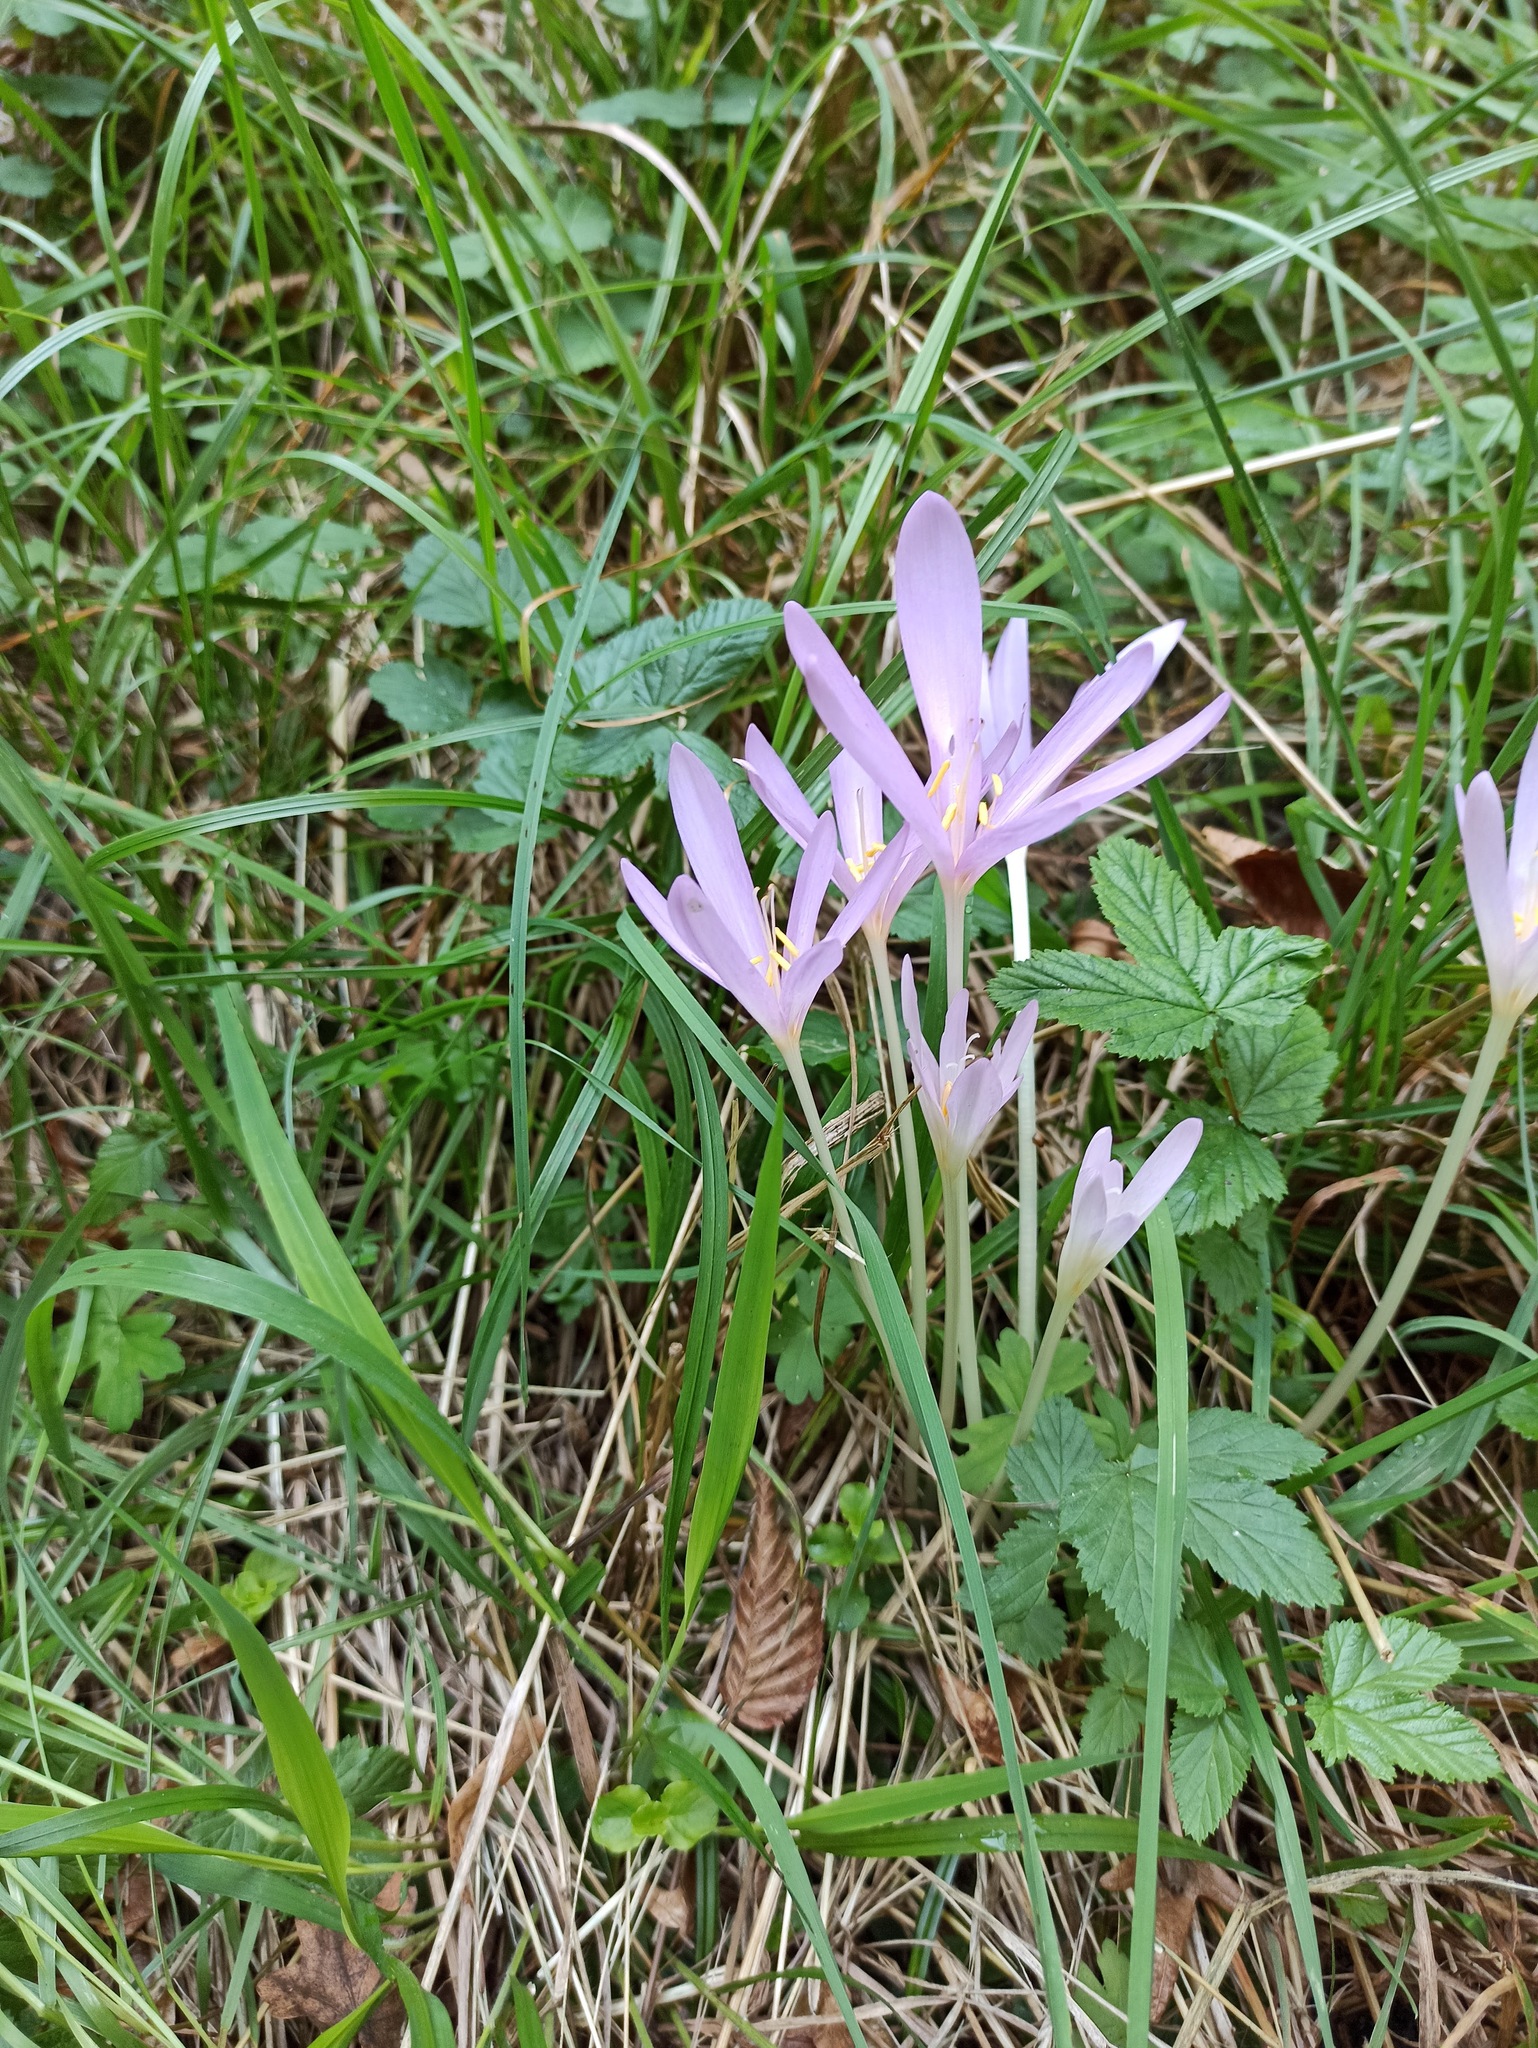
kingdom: Plantae
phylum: Tracheophyta
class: Liliopsida
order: Liliales
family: Colchicaceae
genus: Colchicum
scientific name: Colchicum autumnale
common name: Autumn crocus
